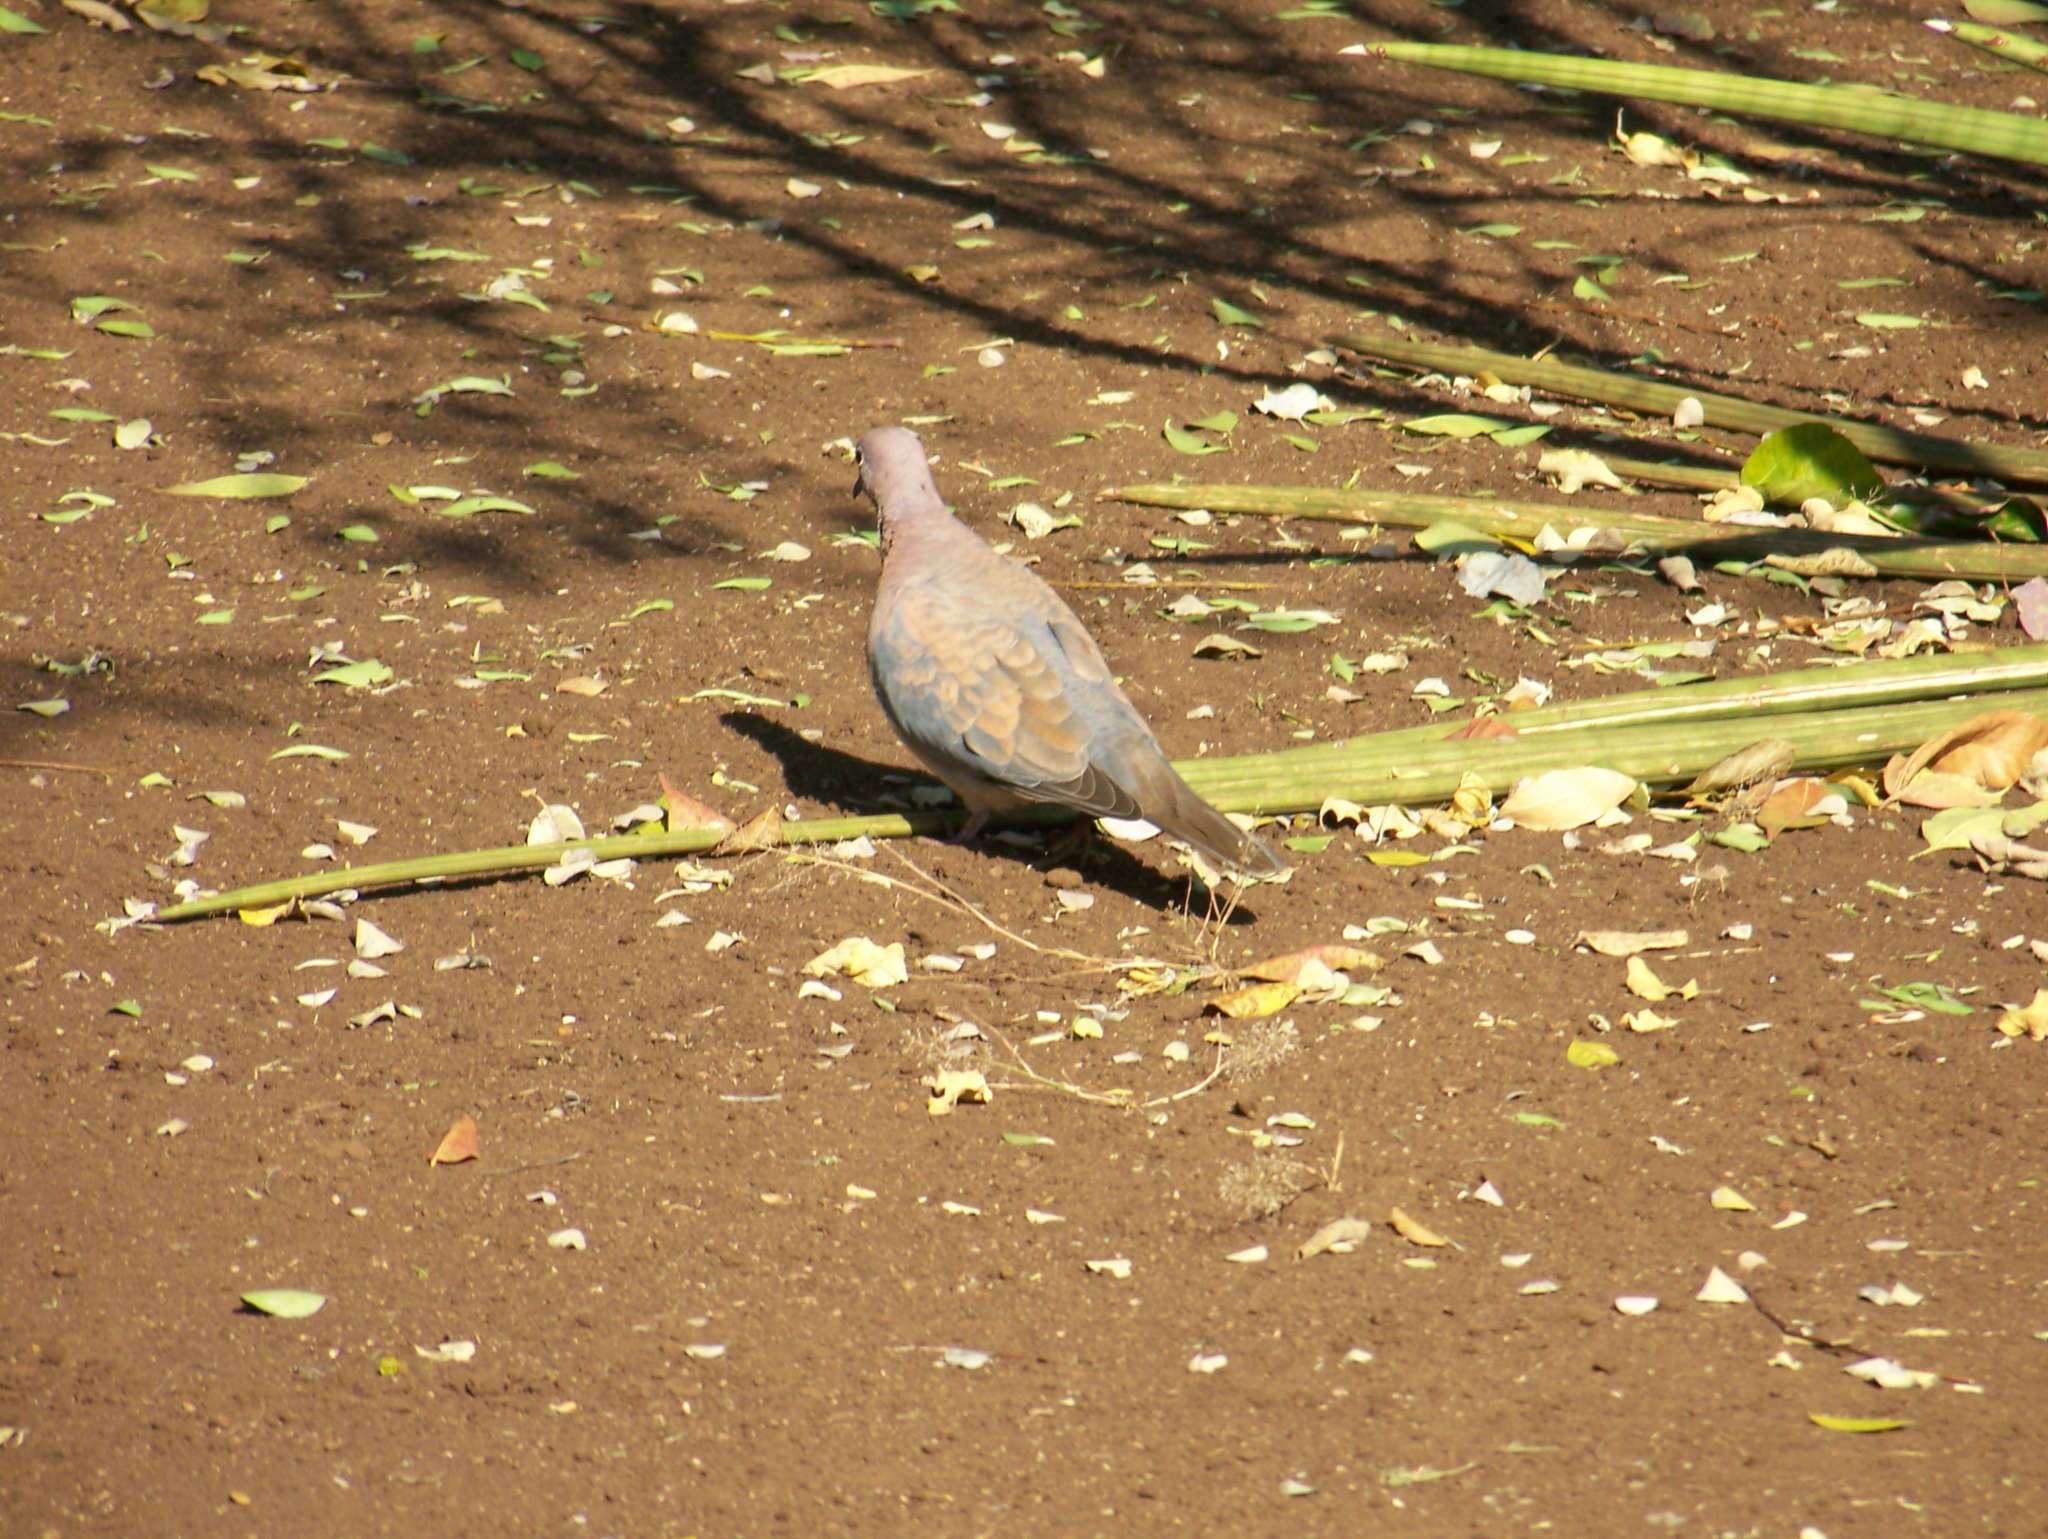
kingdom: Animalia
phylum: Chordata
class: Aves
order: Columbiformes
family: Columbidae
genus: Spilopelia
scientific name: Spilopelia senegalensis
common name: Laughing dove
